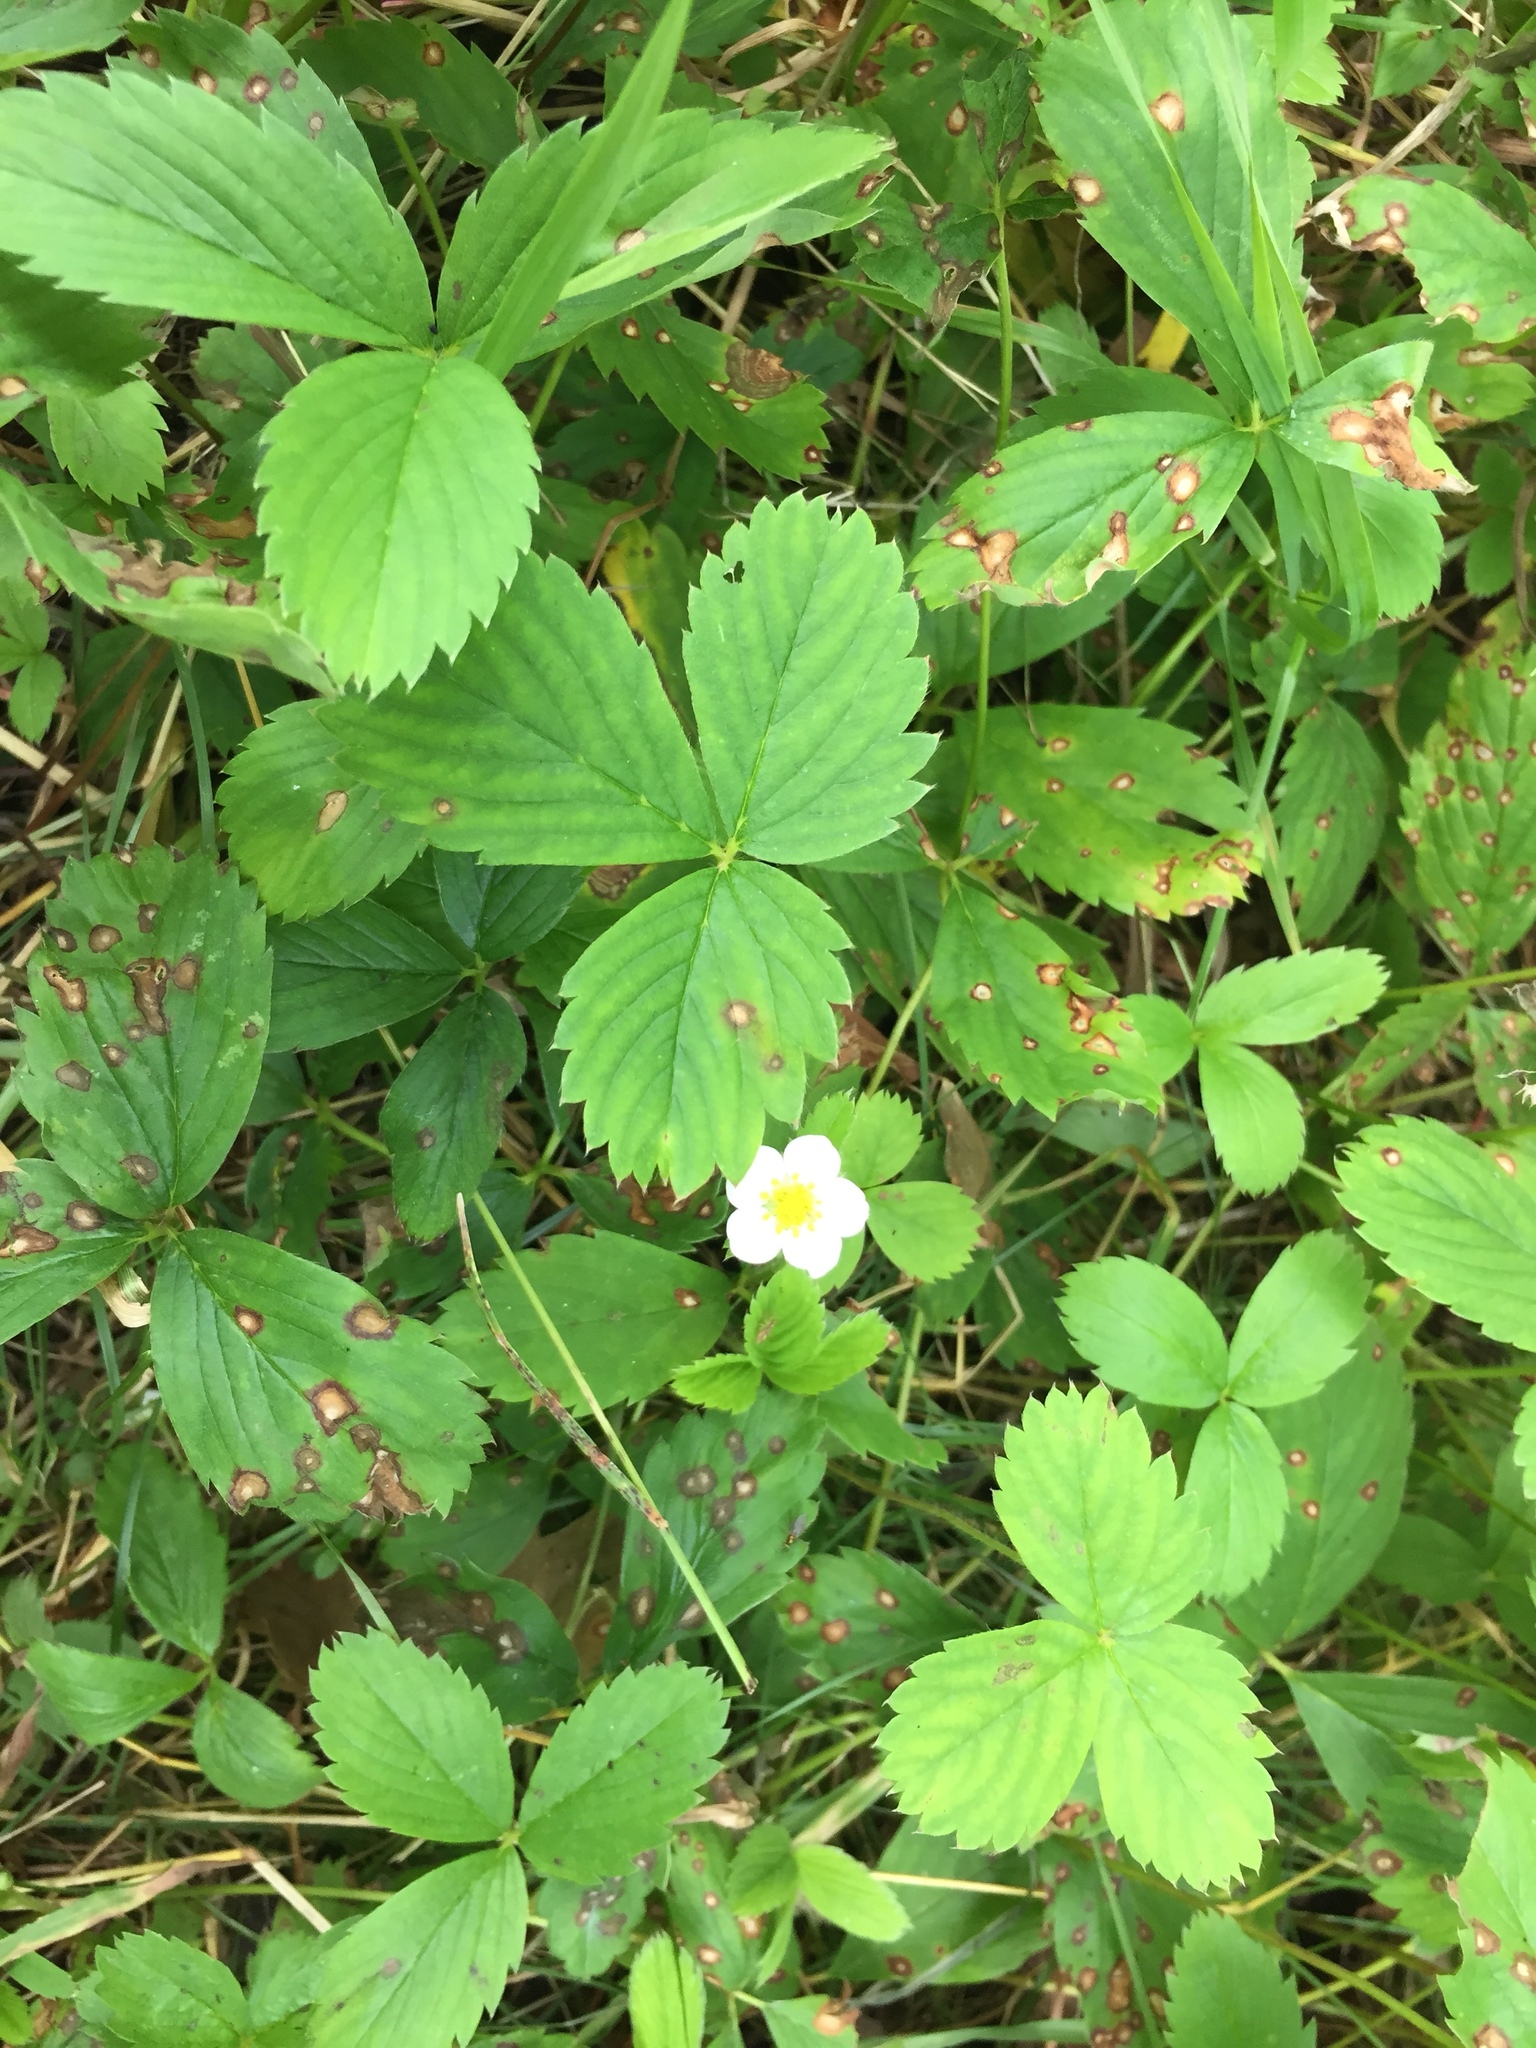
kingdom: Plantae
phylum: Tracheophyta
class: Magnoliopsida
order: Rosales
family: Rosaceae
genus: Fragaria
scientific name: Fragaria virginiana
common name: Thickleaved wild strawberry
